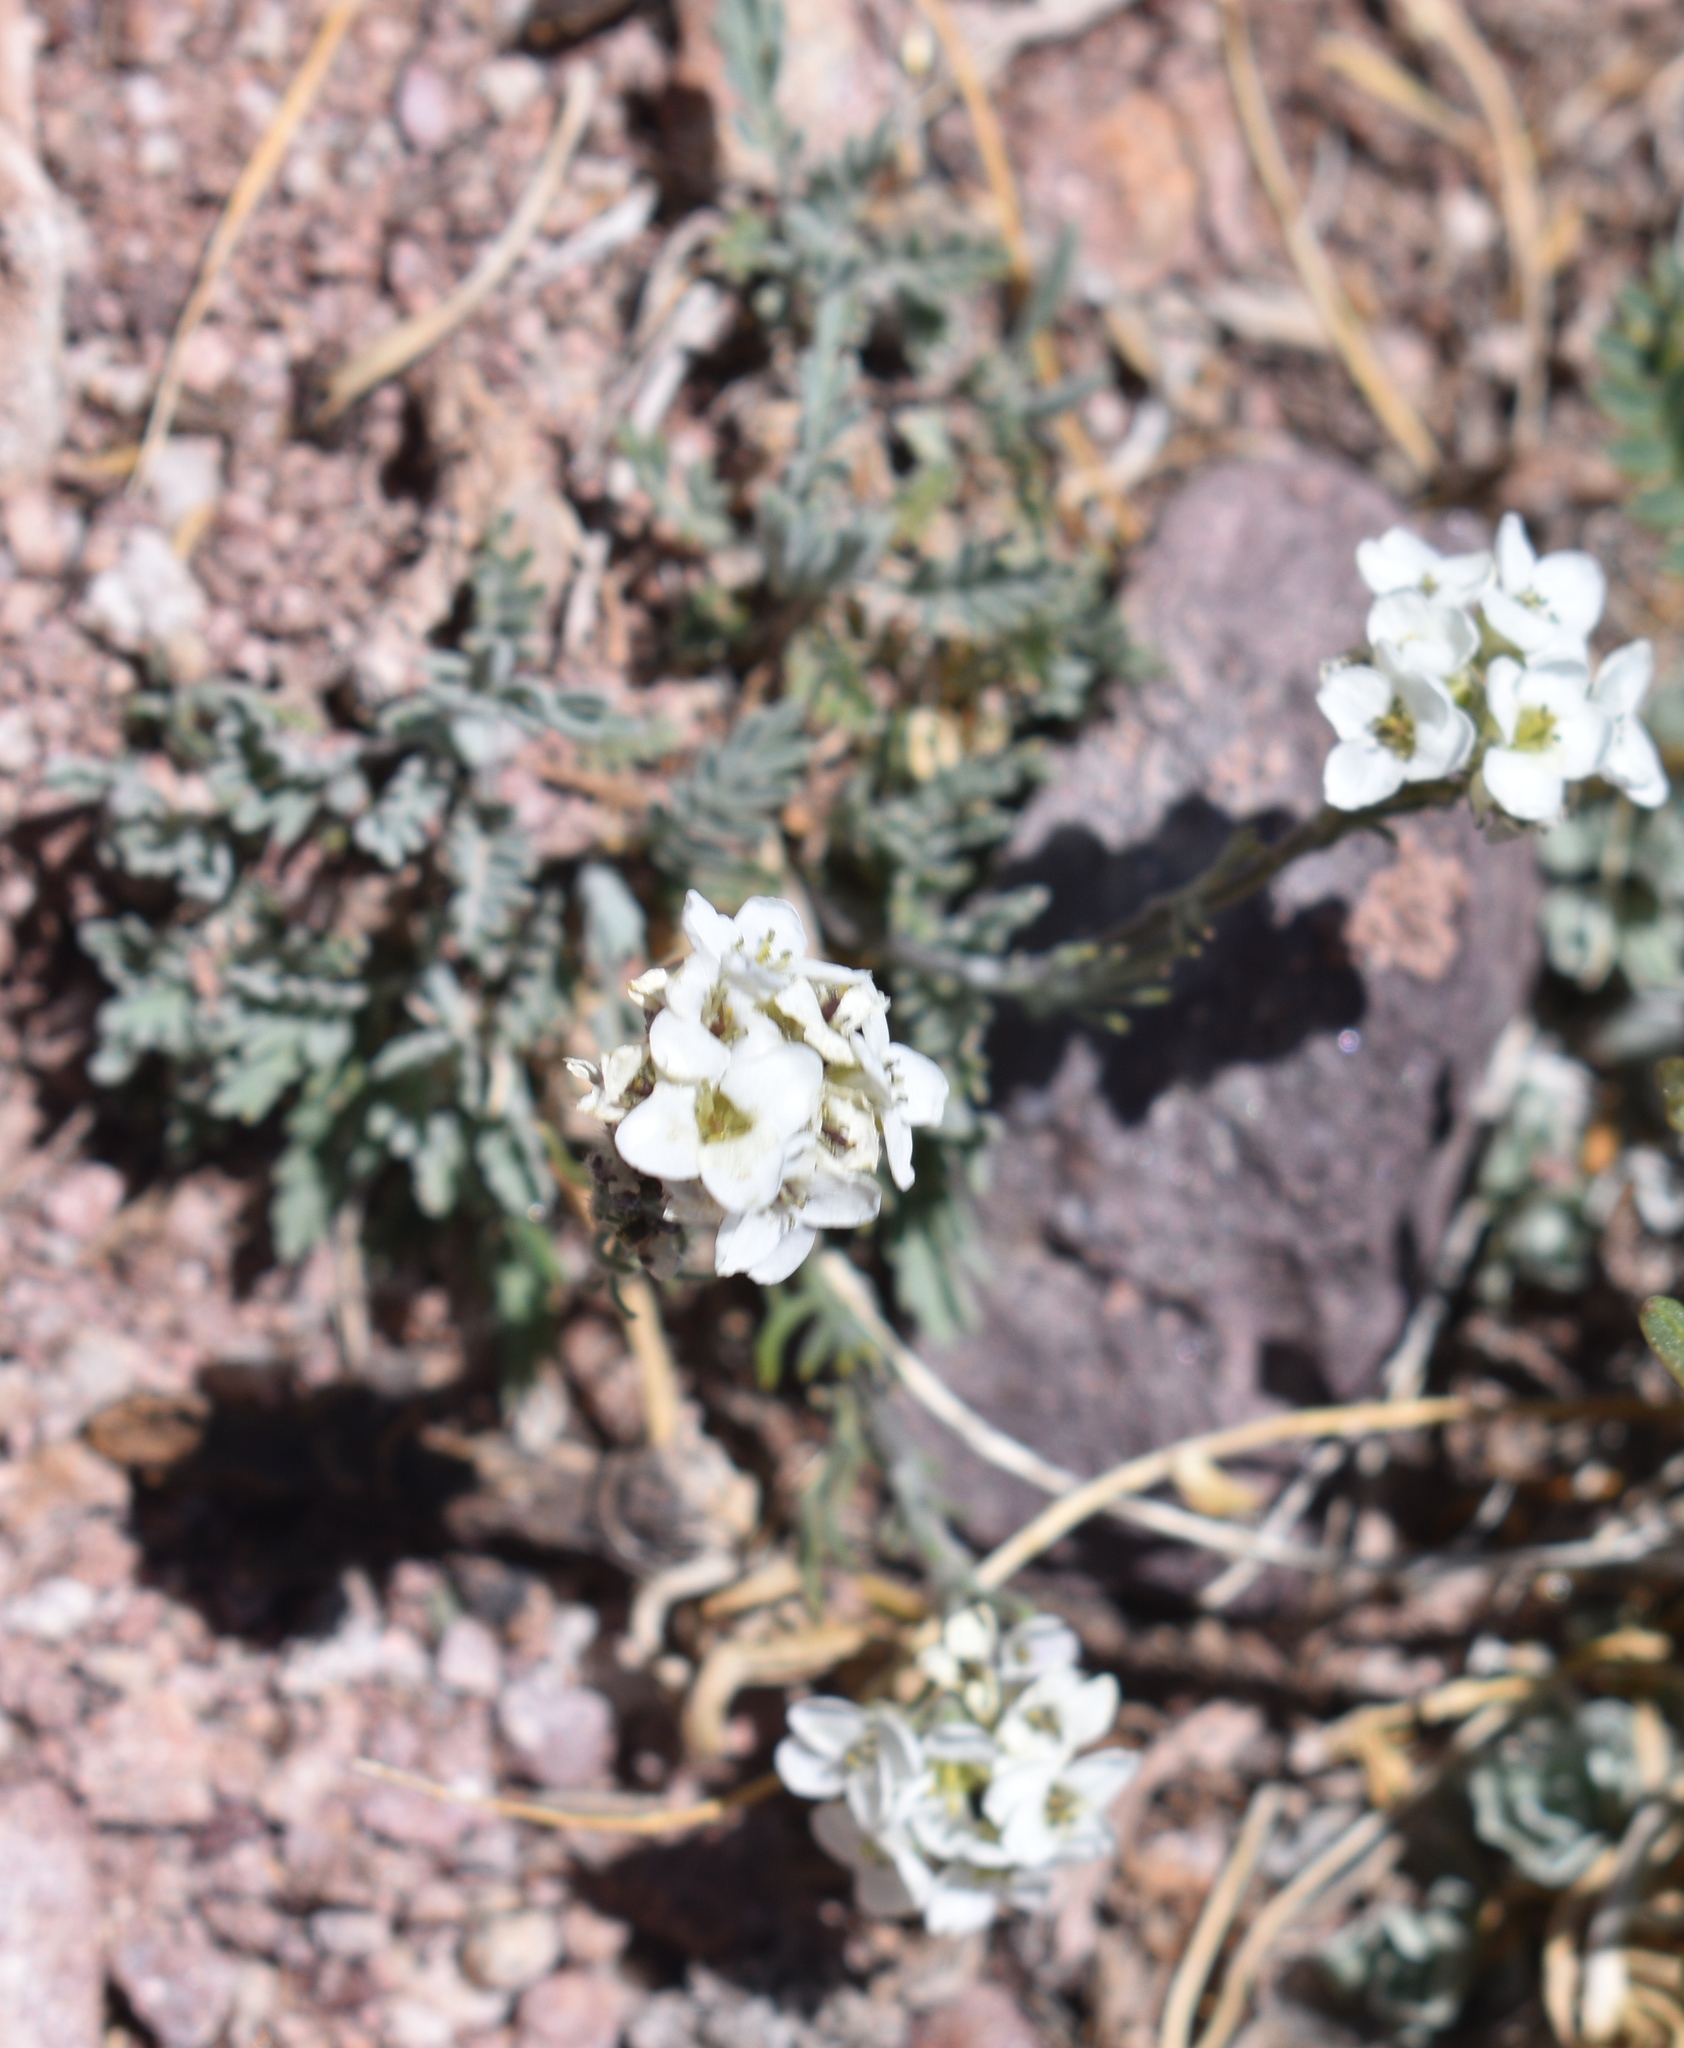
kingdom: Plantae
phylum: Tracheophyta
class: Magnoliopsida
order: Brassicales
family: Brassicaceae
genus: Smelowskia
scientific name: Smelowskia americana
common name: American false candytuft
